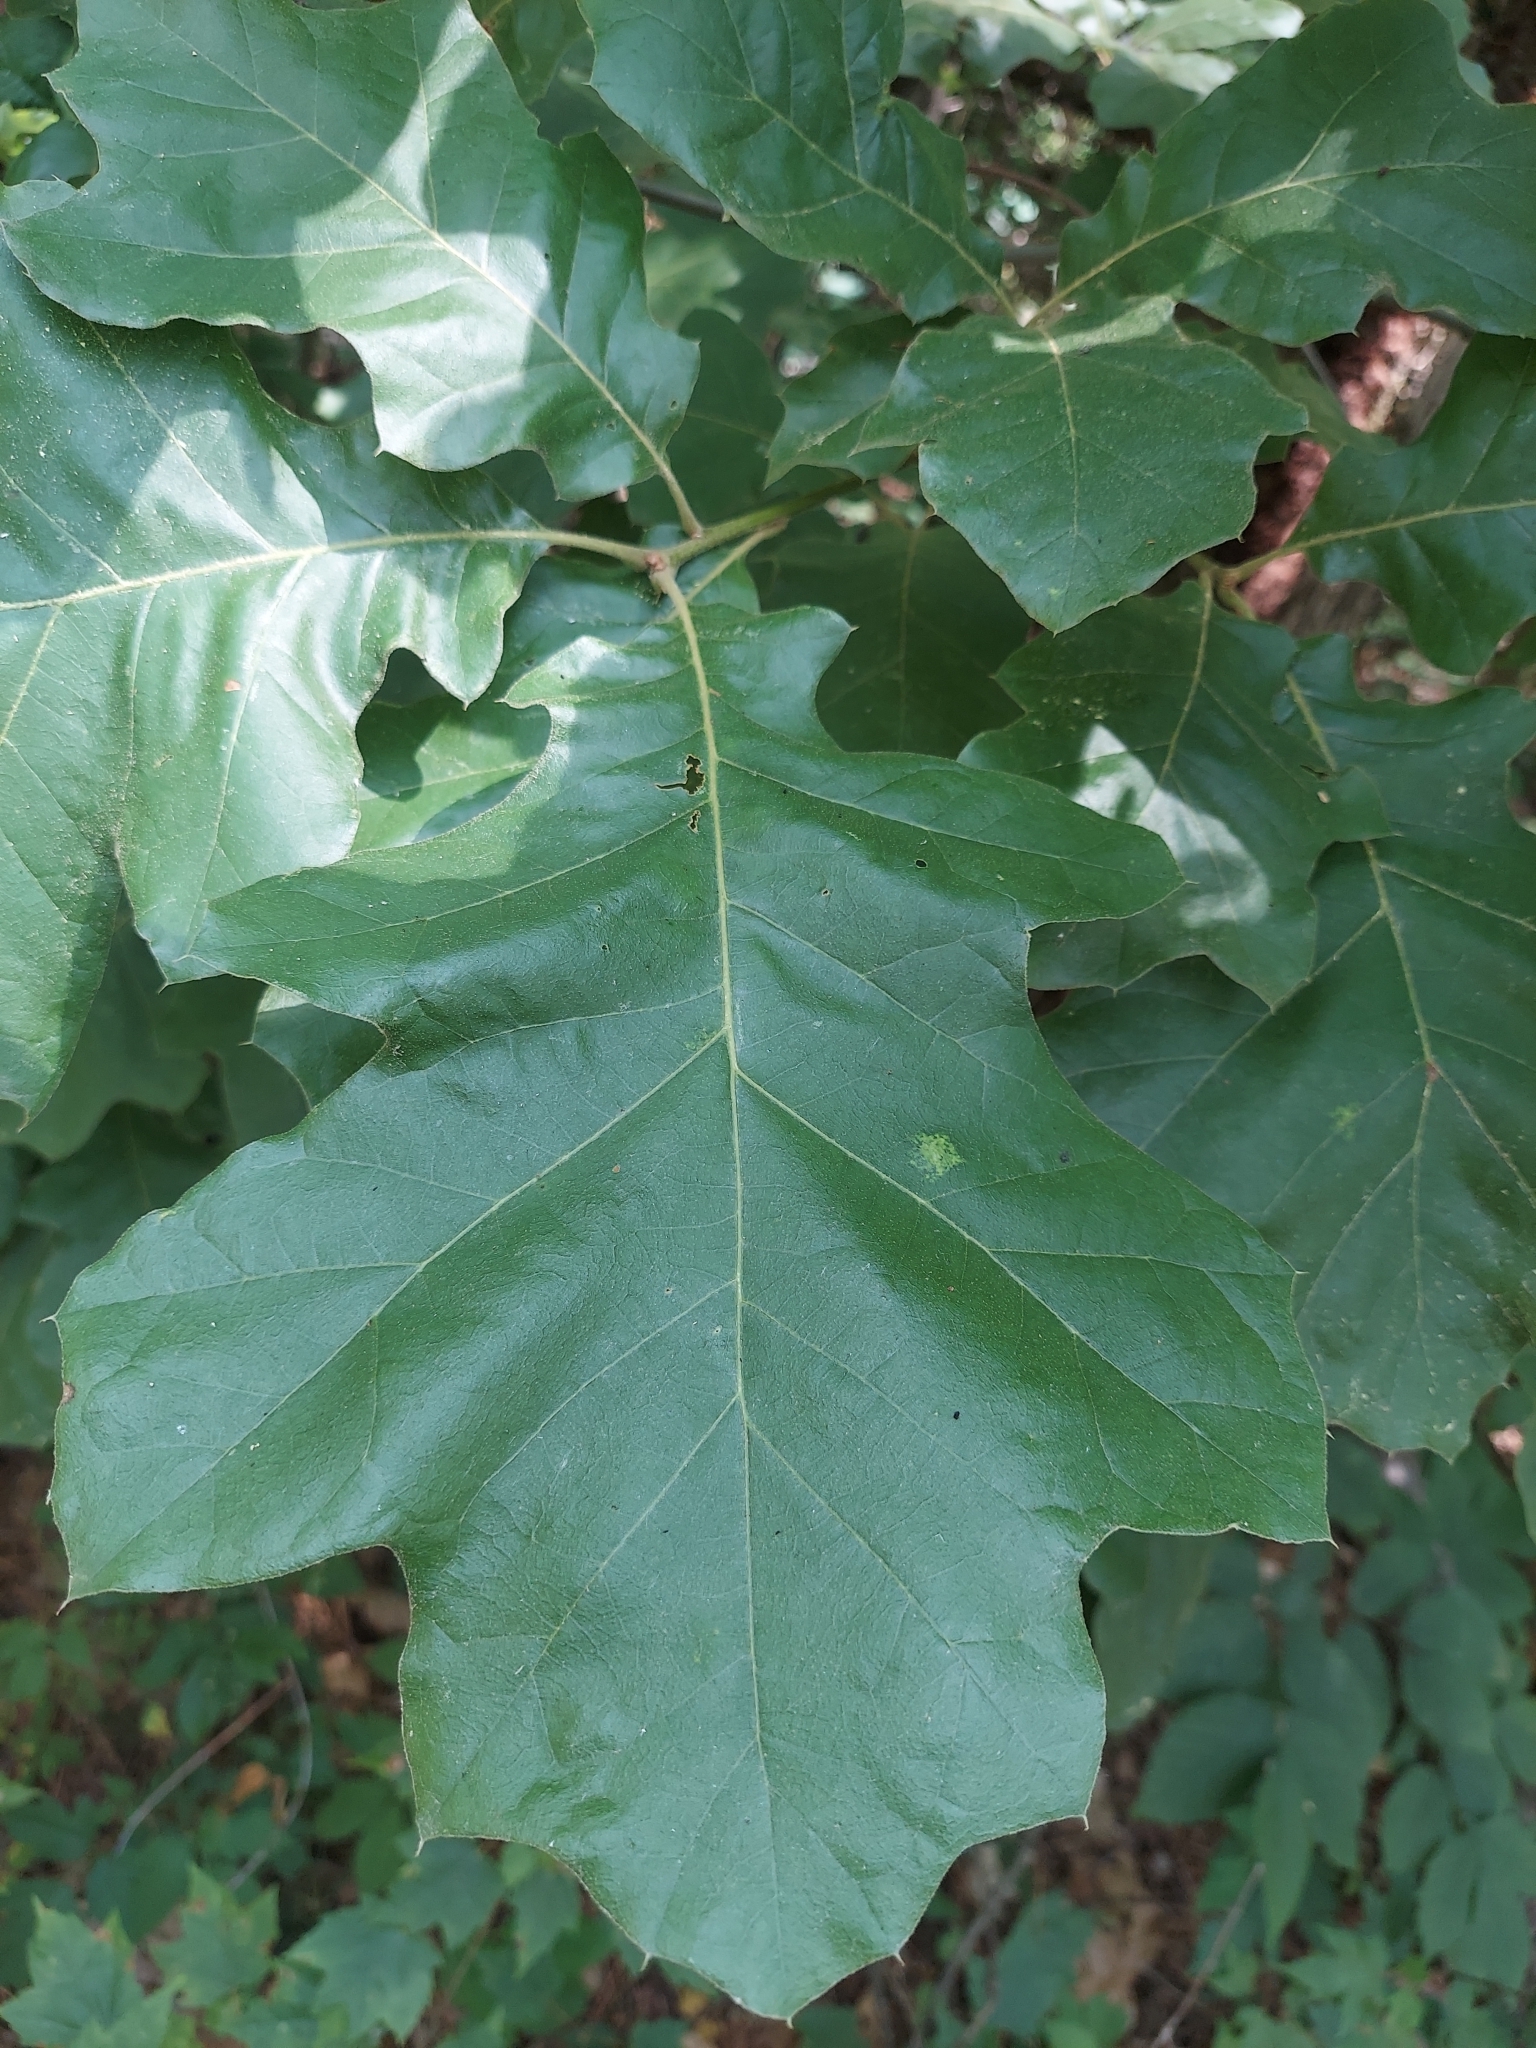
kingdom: Plantae
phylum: Tracheophyta
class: Magnoliopsida
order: Fagales
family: Fagaceae
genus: Quercus
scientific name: Quercus velutina
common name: Black oak
